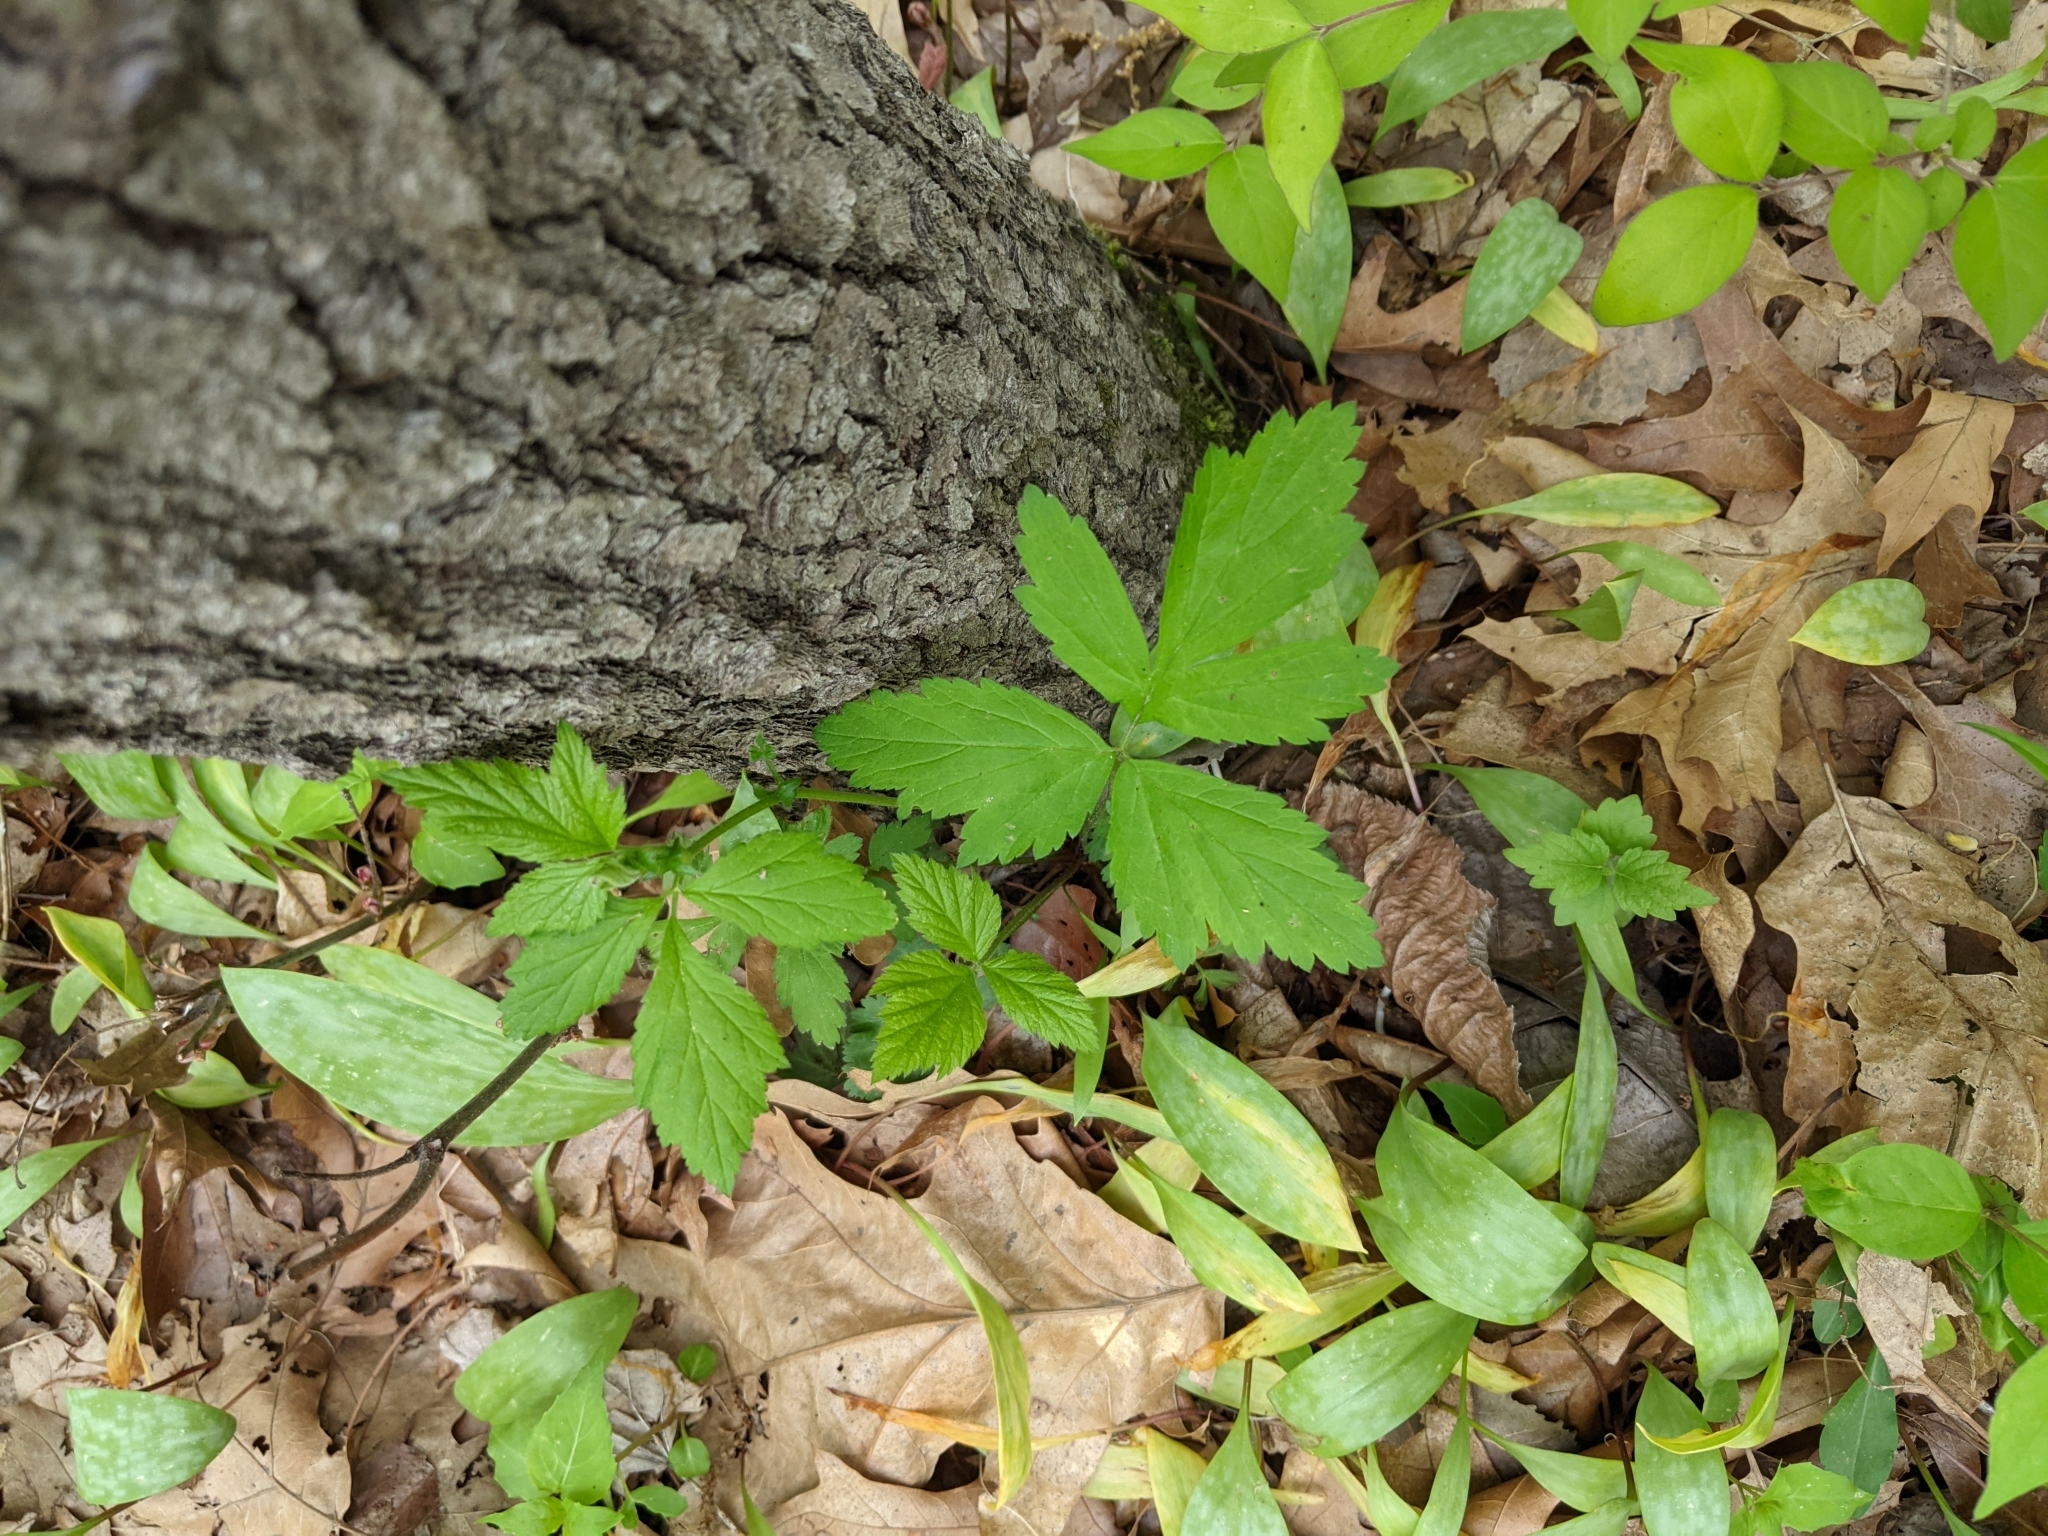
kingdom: Plantae
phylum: Tracheophyta
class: Magnoliopsida
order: Rosales
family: Rosaceae
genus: Geum
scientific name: Geum canadense
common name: White avens
